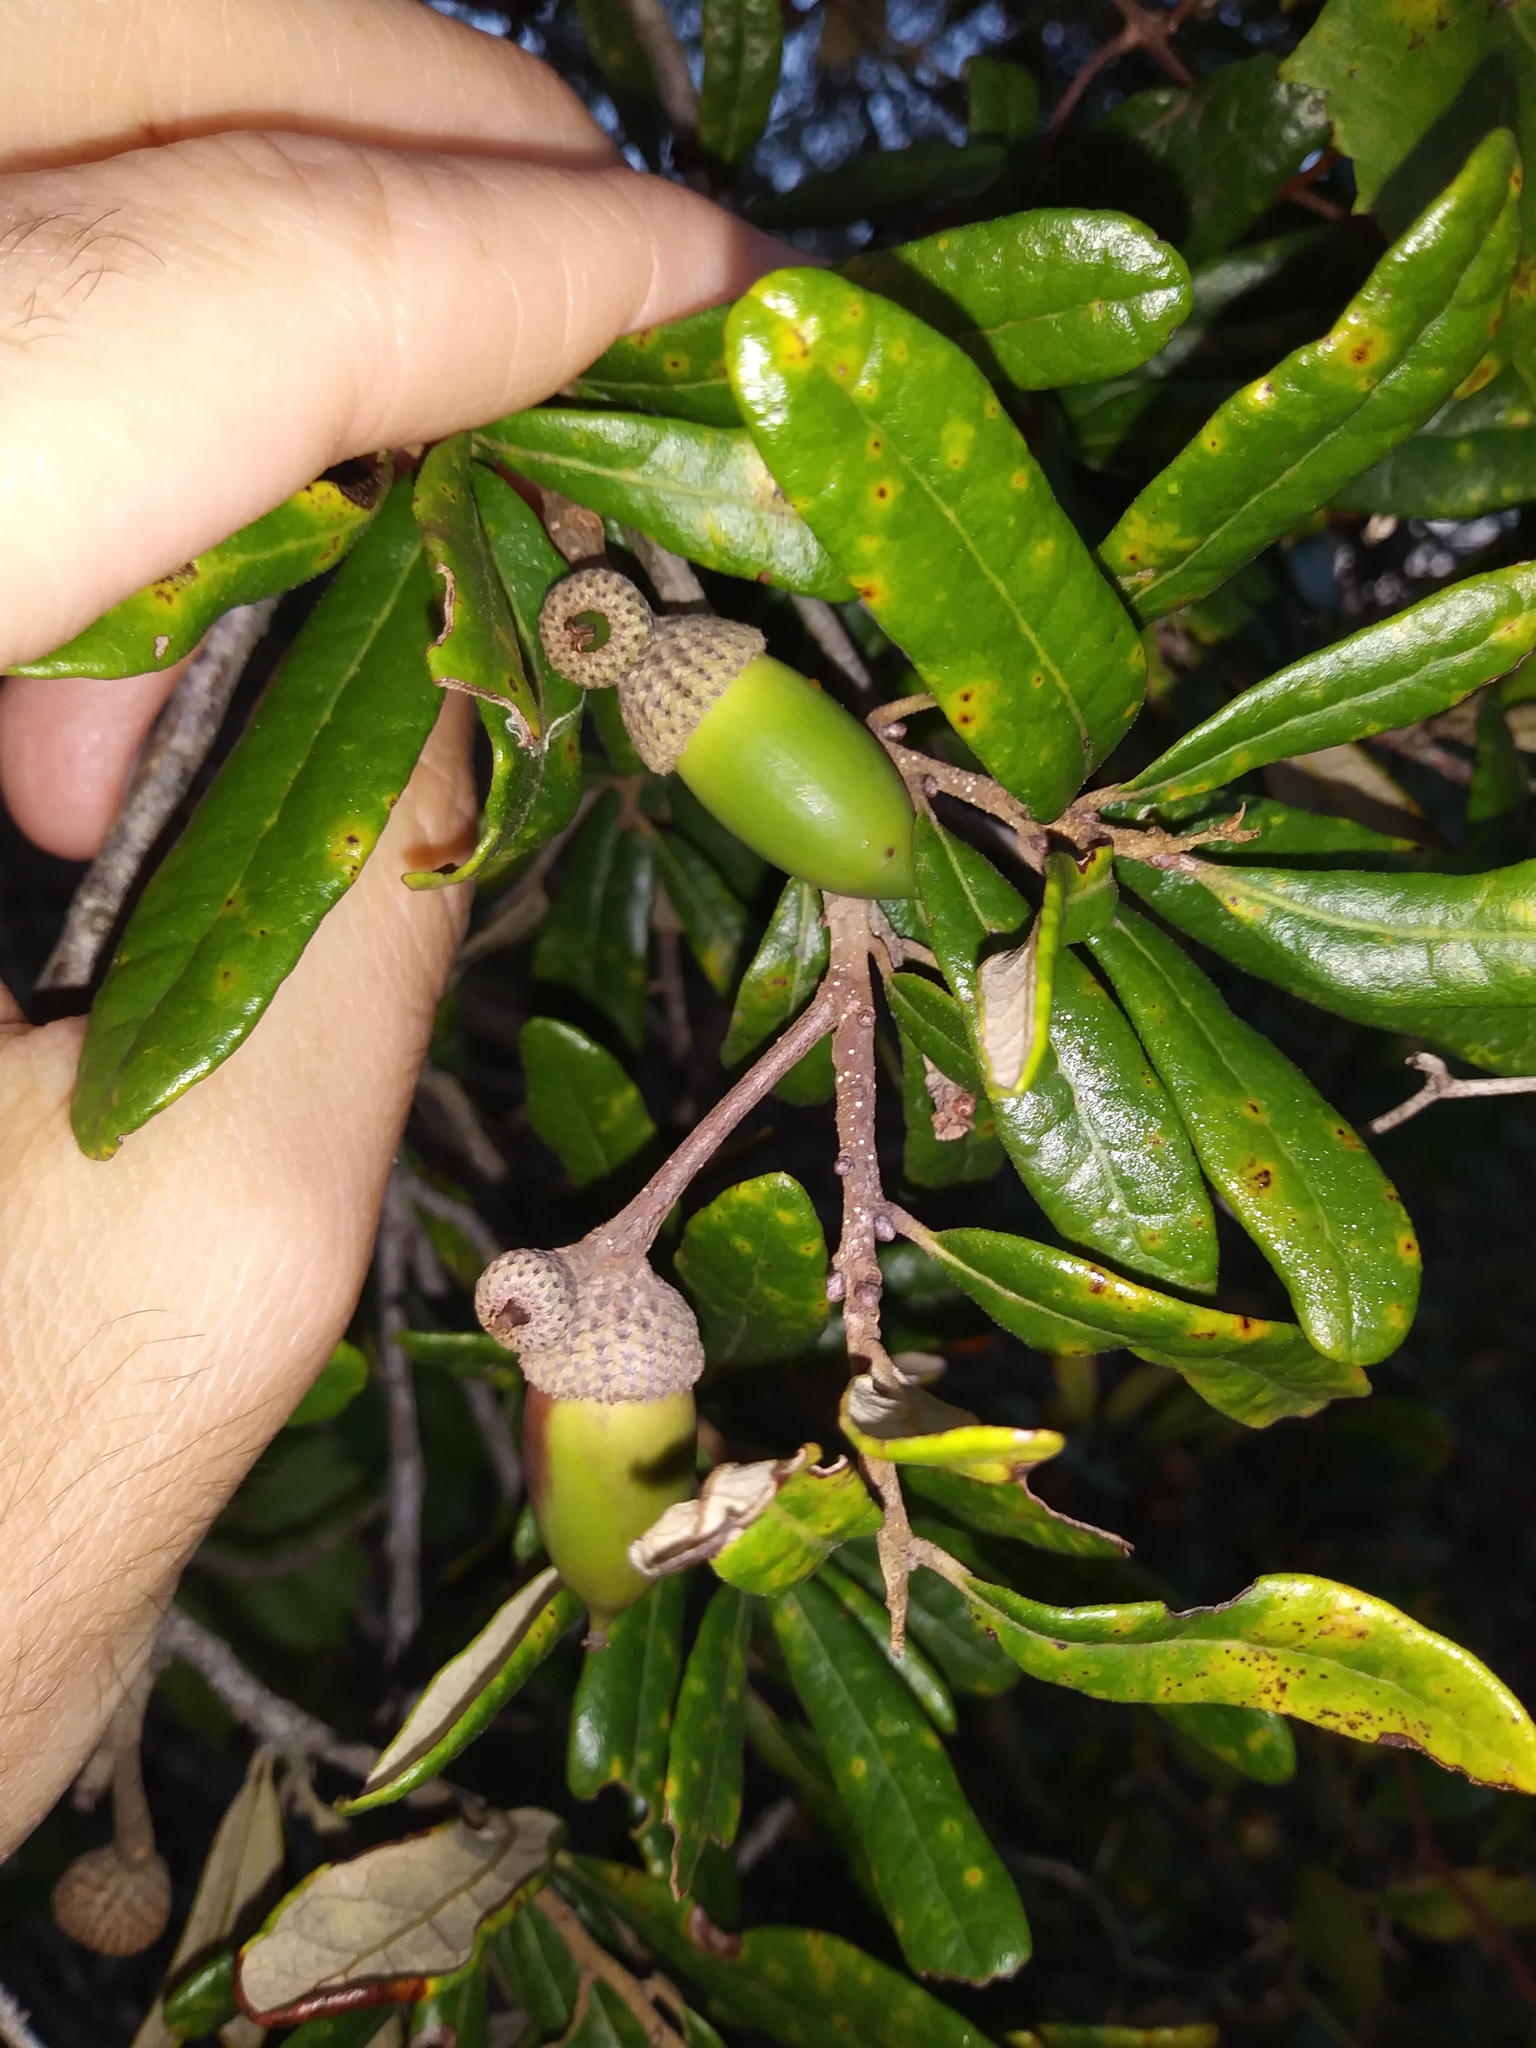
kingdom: Plantae
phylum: Tracheophyta
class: Magnoliopsida
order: Fagales
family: Fagaceae
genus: Quercus
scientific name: Quercus geminata
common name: Sand live oak
